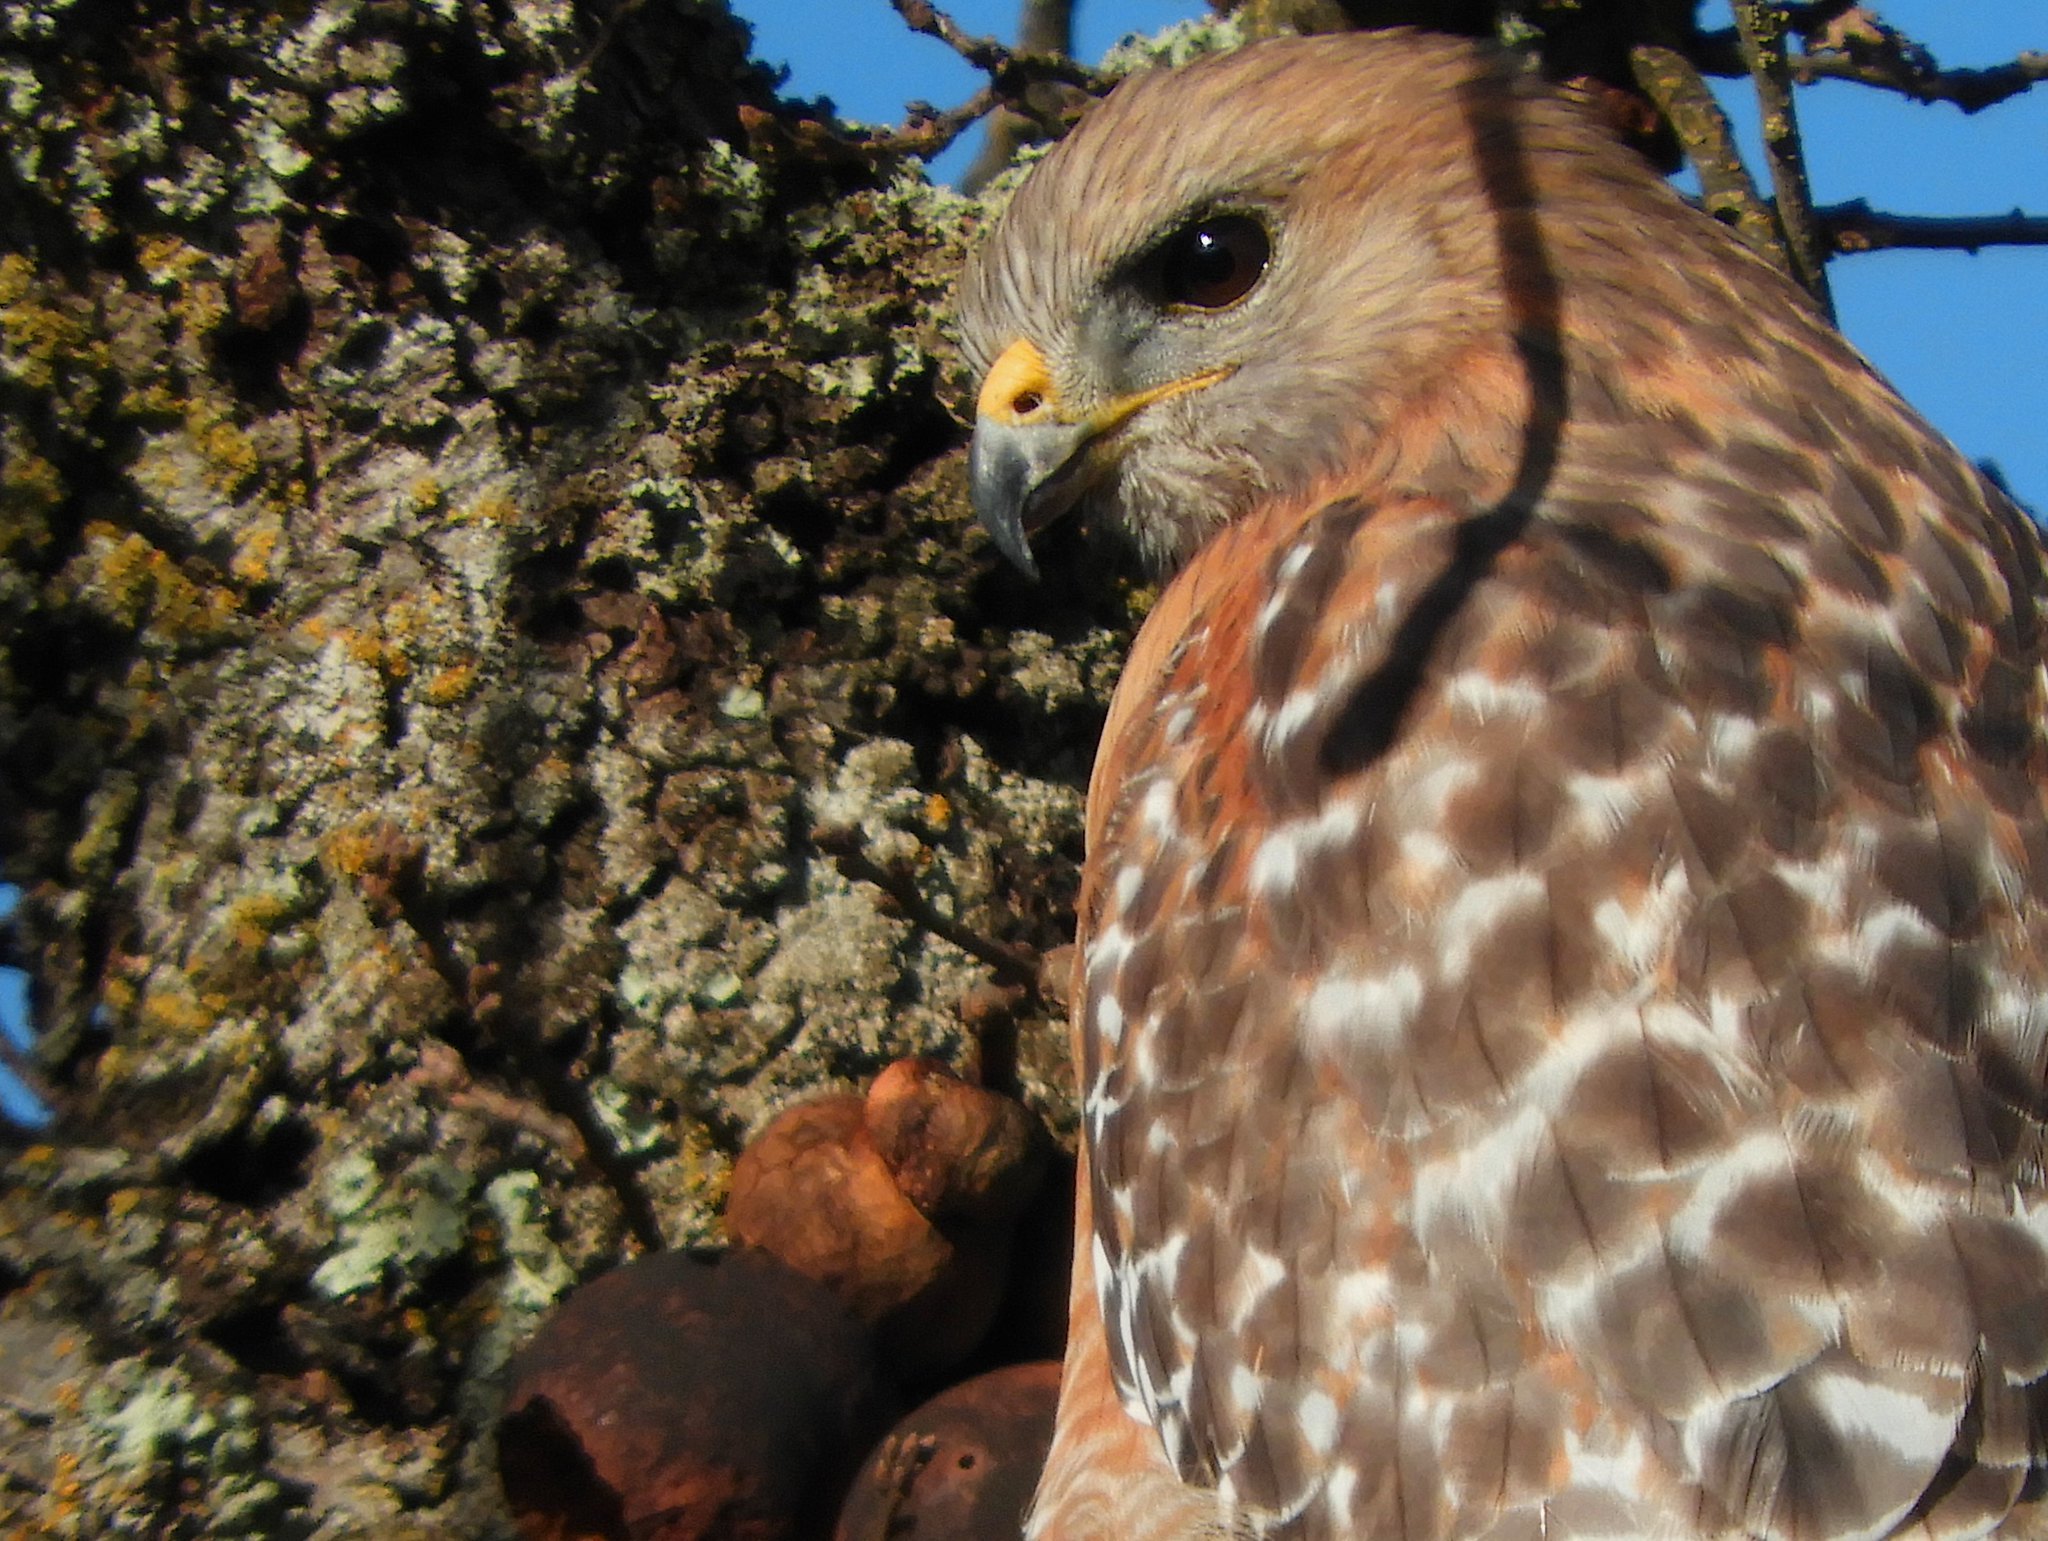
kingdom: Animalia
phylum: Chordata
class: Aves
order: Accipitriformes
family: Accipitridae
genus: Buteo
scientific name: Buteo lineatus
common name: Red-shouldered hawk
